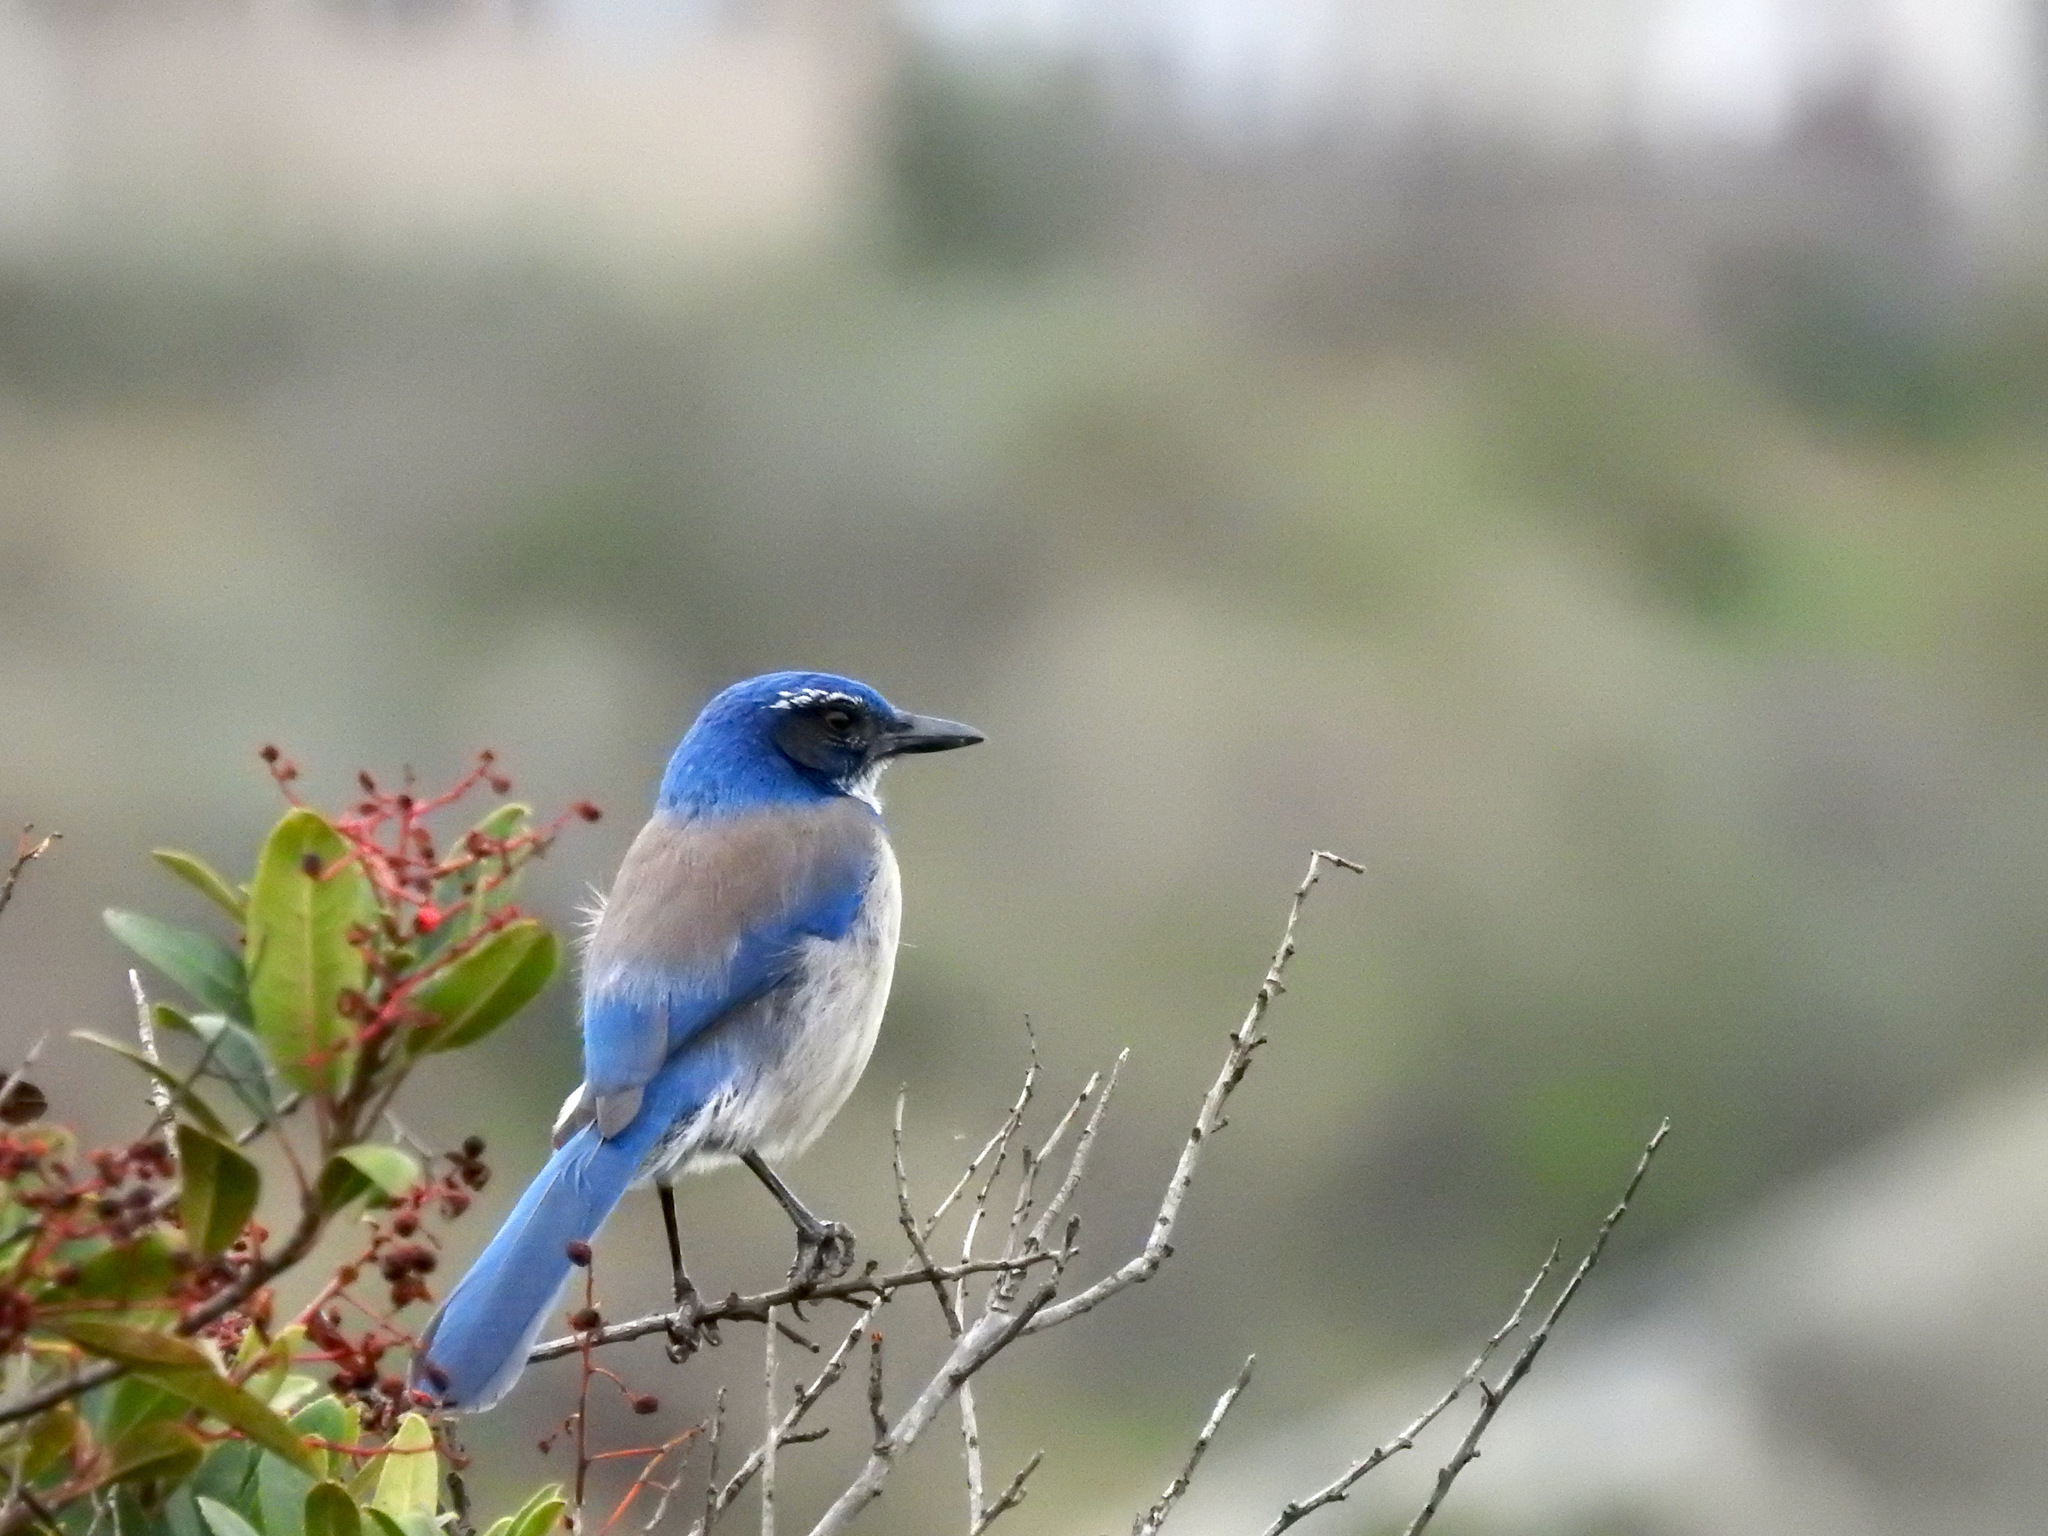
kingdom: Animalia
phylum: Chordata
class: Aves
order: Passeriformes
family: Corvidae
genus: Aphelocoma
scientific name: Aphelocoma californica
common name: California scrub-jay
